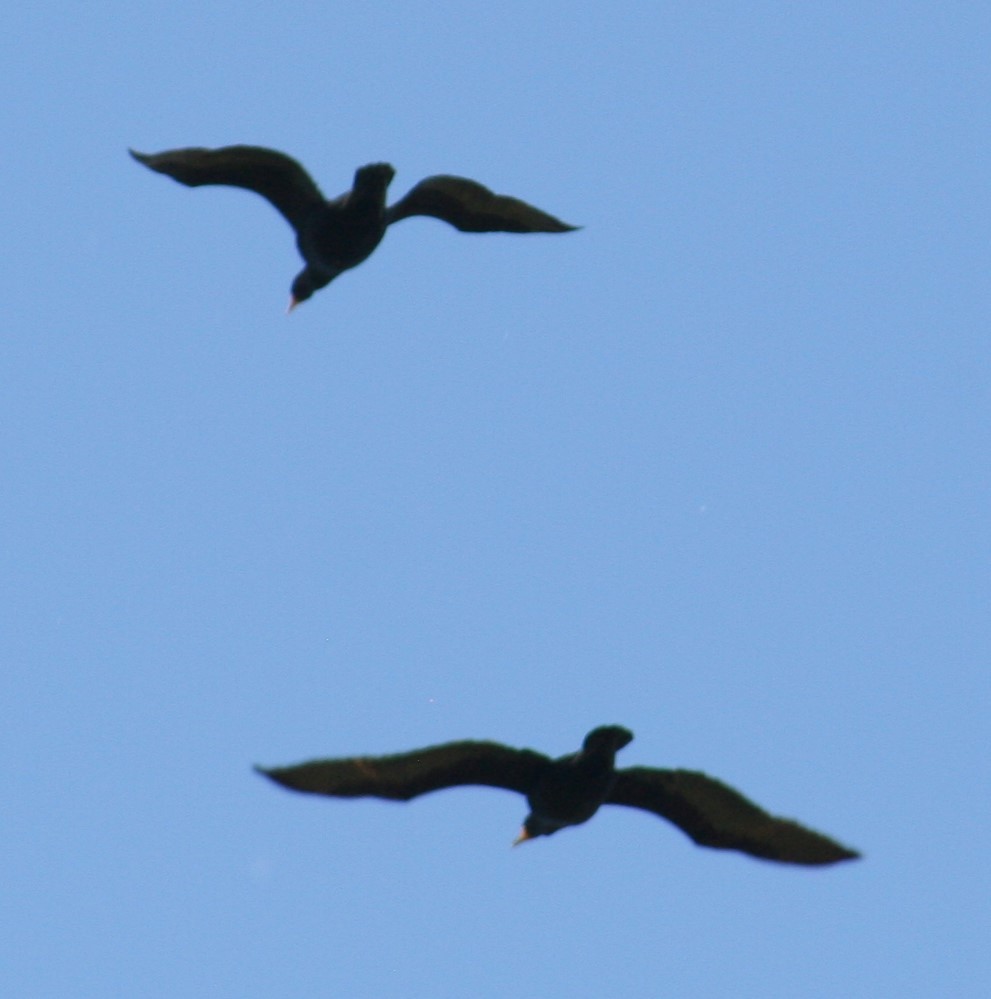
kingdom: Animalia
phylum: Chordata
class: Aves
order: Suliformes
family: Phalacrocoracidae
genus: Phalacrocorax
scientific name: Phalacrocorax auritus
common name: Double-crested cormorant
